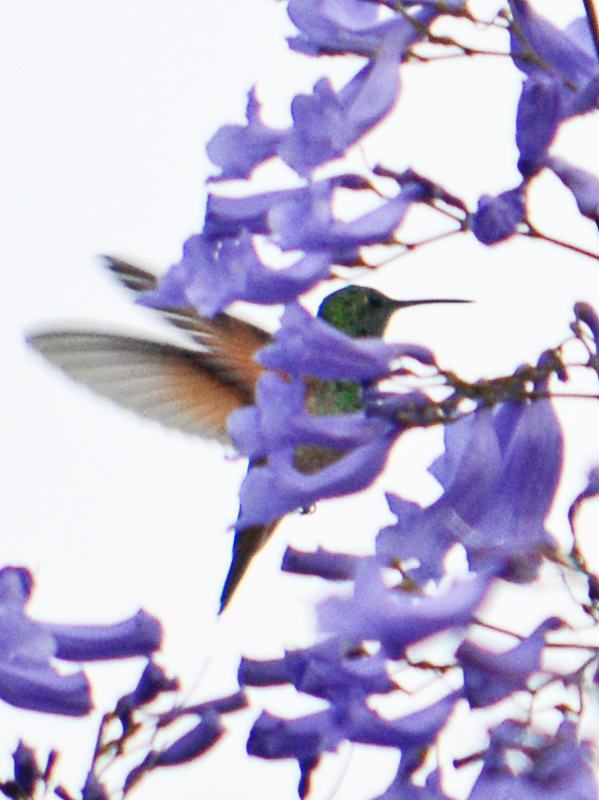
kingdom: Animalia
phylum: Chordata
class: Aves
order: Apodiformes
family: Trochilidae
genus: Saucerottia
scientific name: Saucerottia beryllina
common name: Berylline hummingbird
